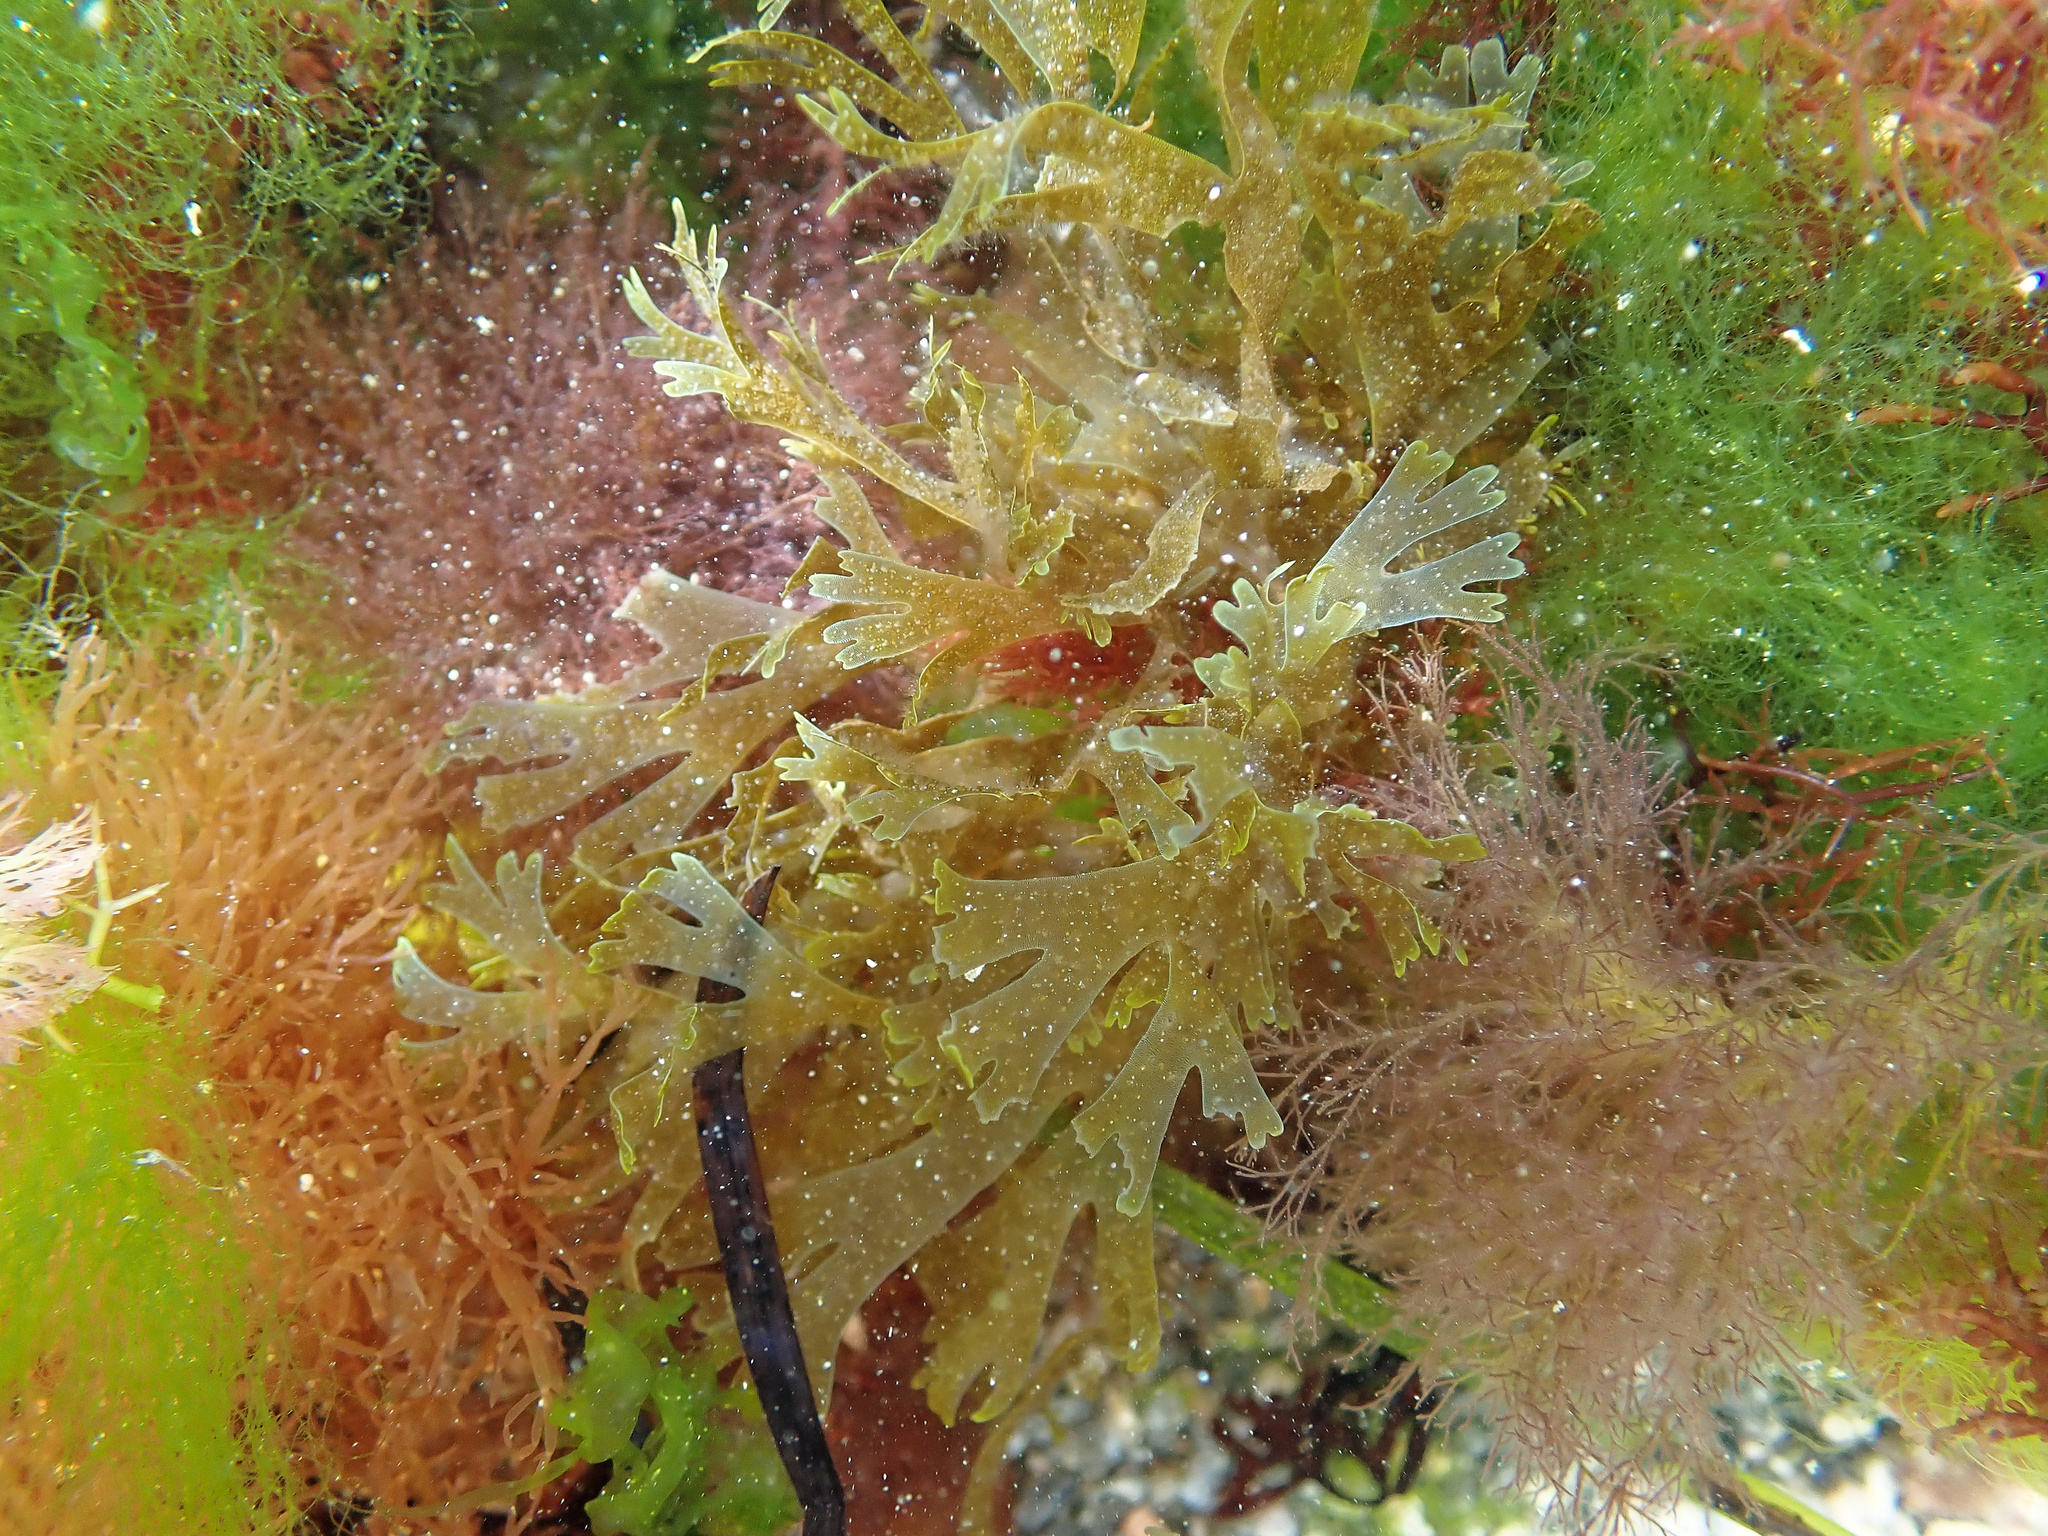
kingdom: Chromista
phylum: Ochrophyta
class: Phaeophyceae
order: Dictyotales
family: Dictyotaceae
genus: Dictyota
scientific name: Dictyota dichotoma
